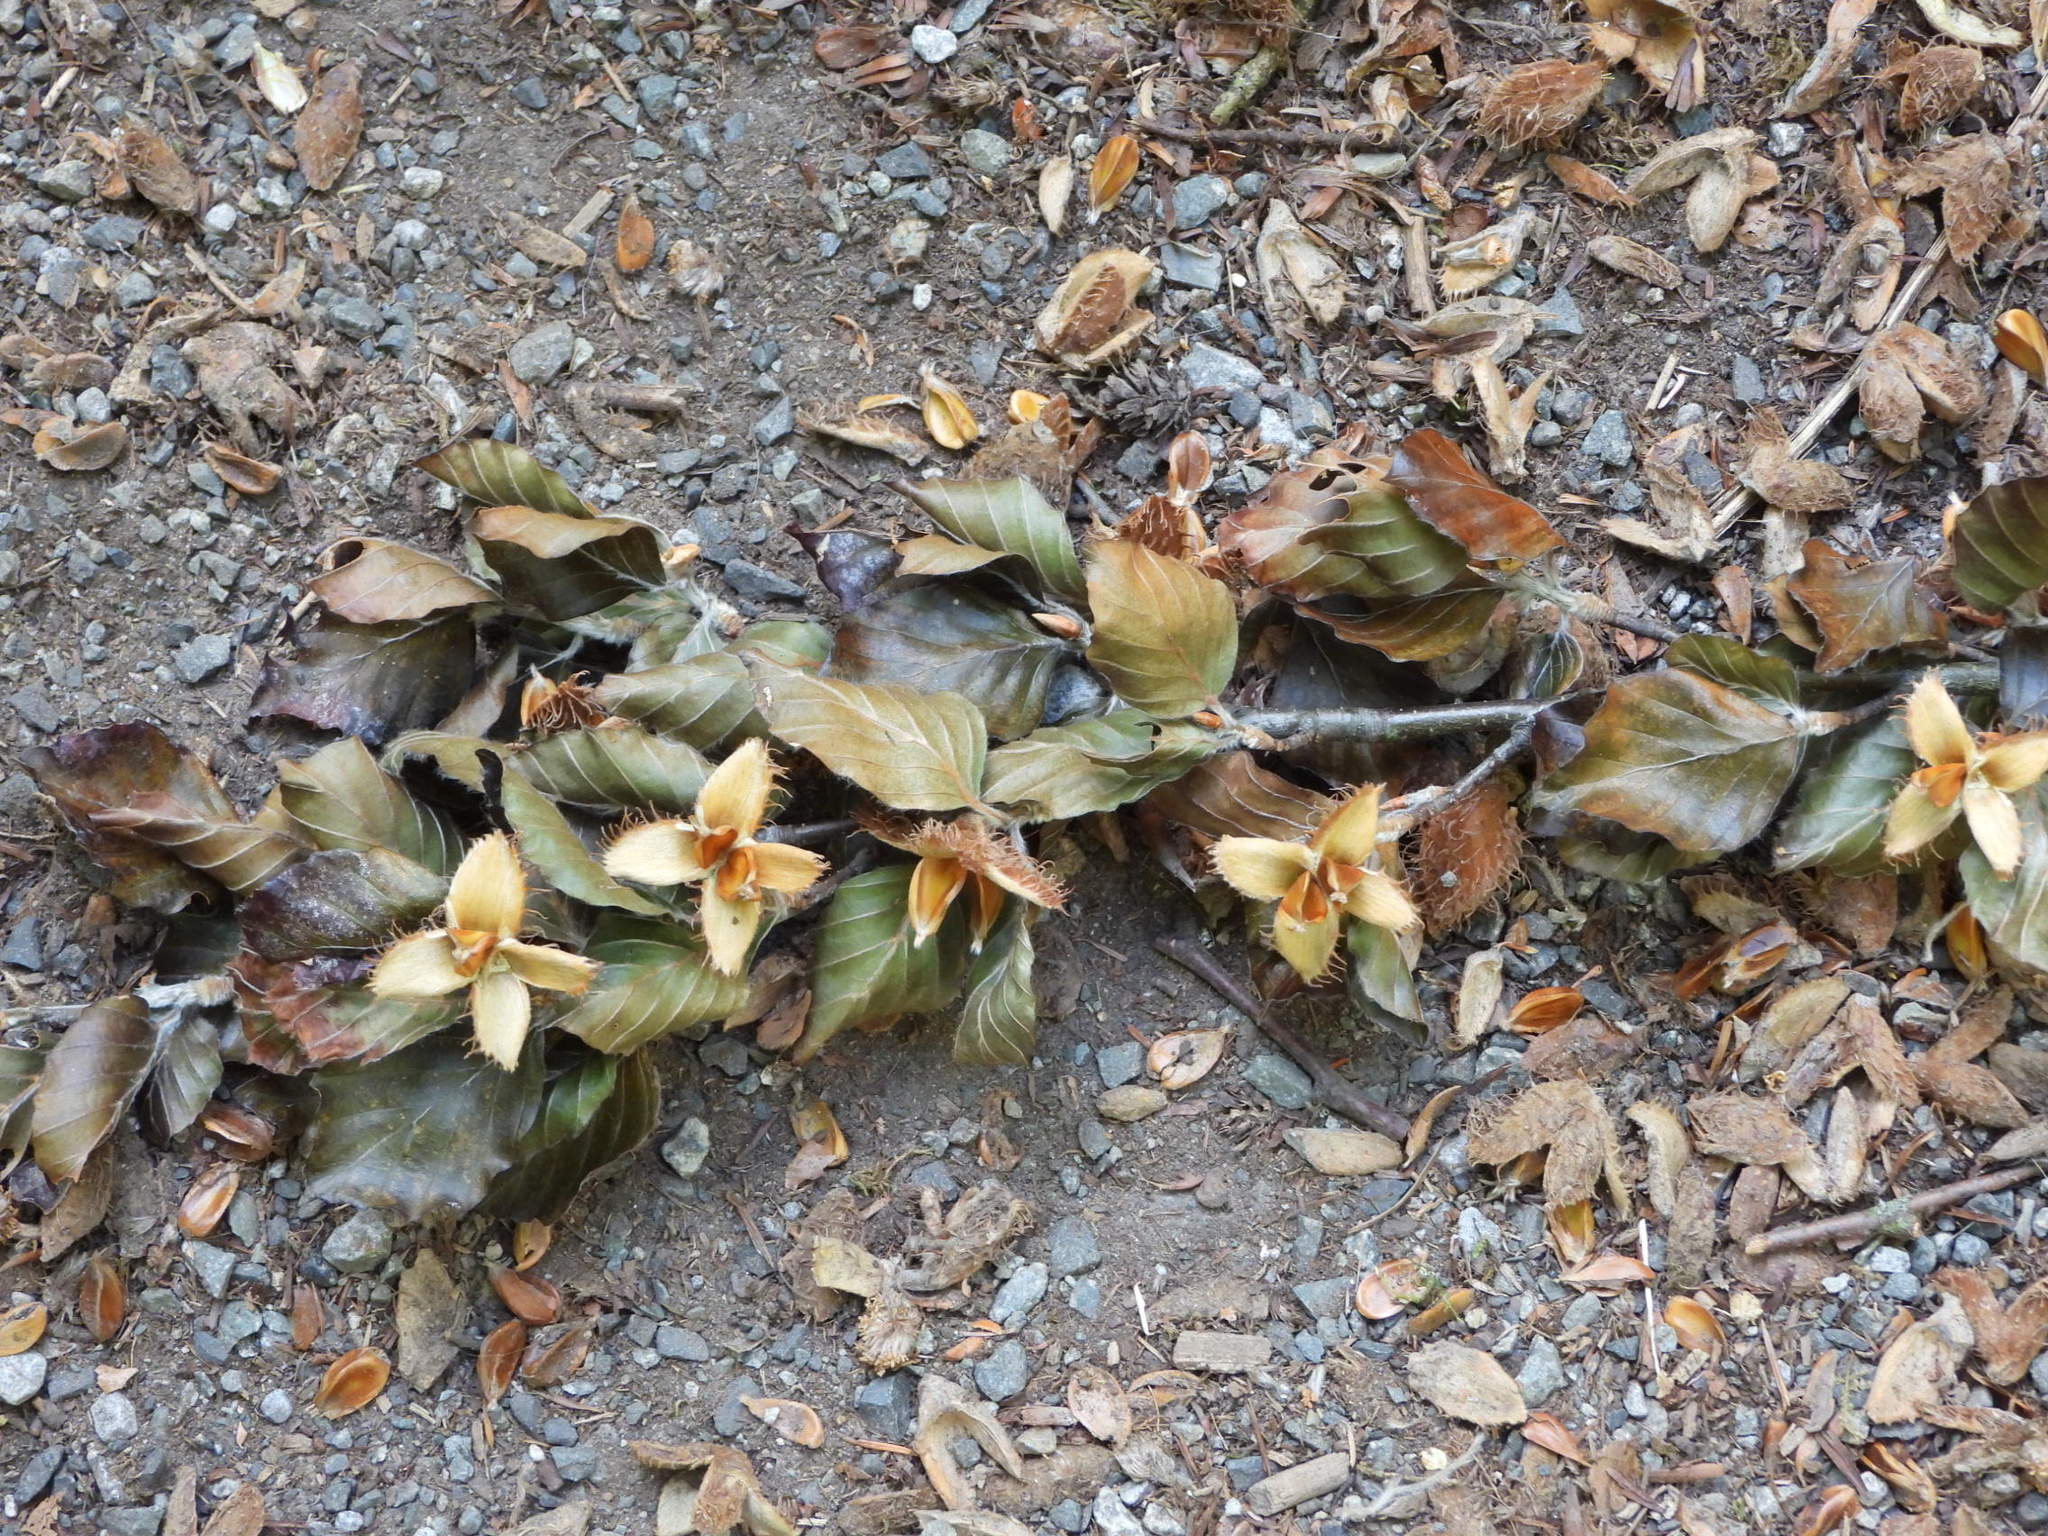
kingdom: Plantae
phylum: Tracheophyta
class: Magnoliopsida
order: Fagales
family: Fagaceae
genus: Fagus
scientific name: Fagus sylvatica
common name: Beech
